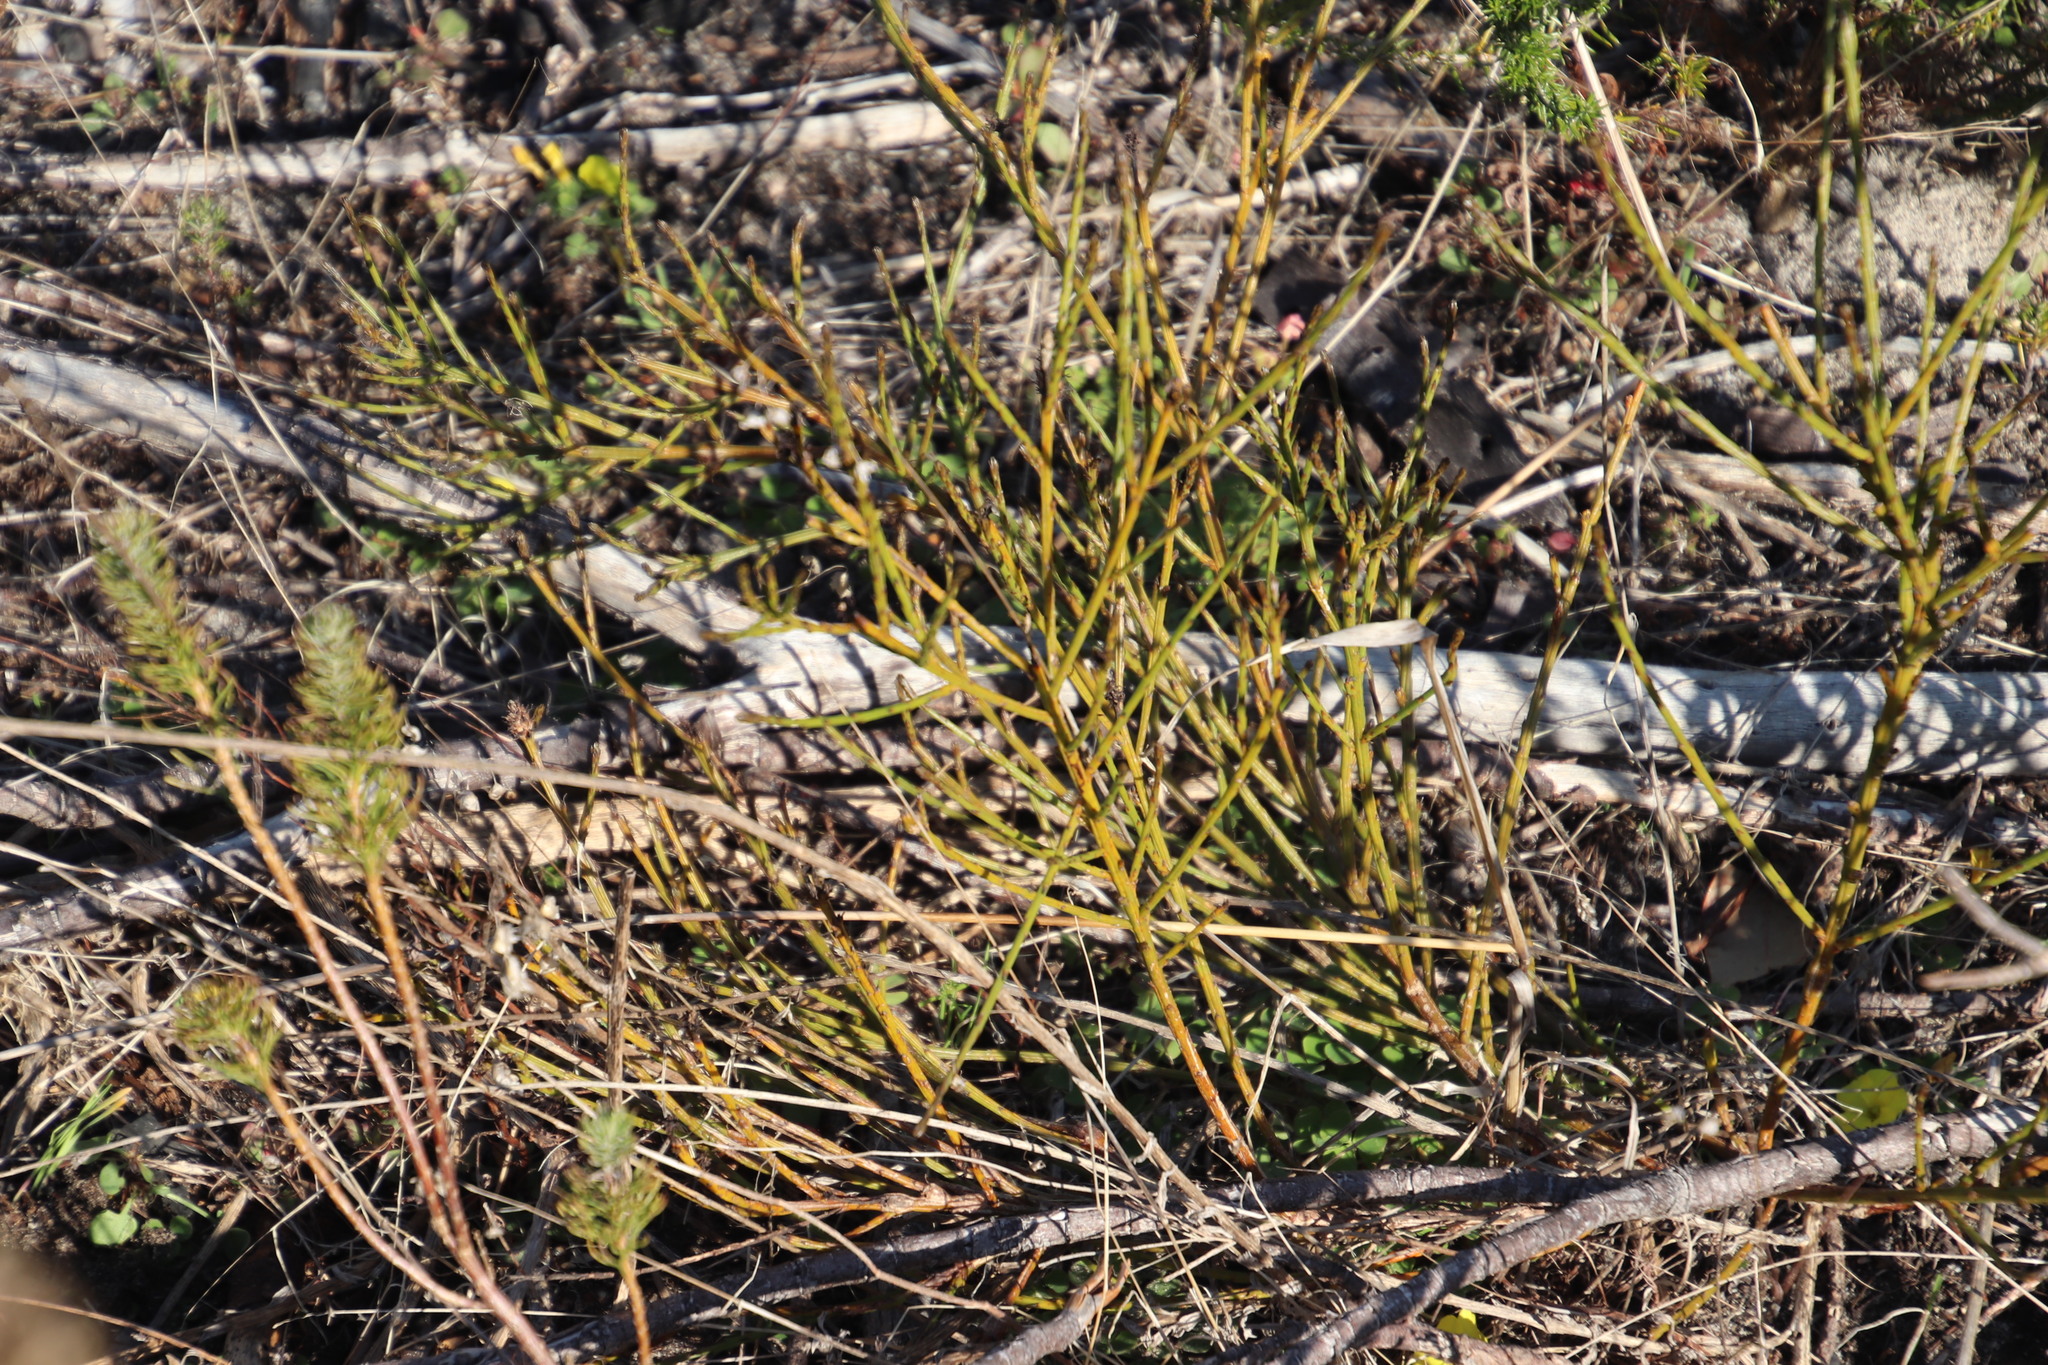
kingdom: Plantae
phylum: Tracheophyta
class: Magnoliopsida
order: Santalales
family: Thesiaceae
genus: Thesium
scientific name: Thesium aggregatum
